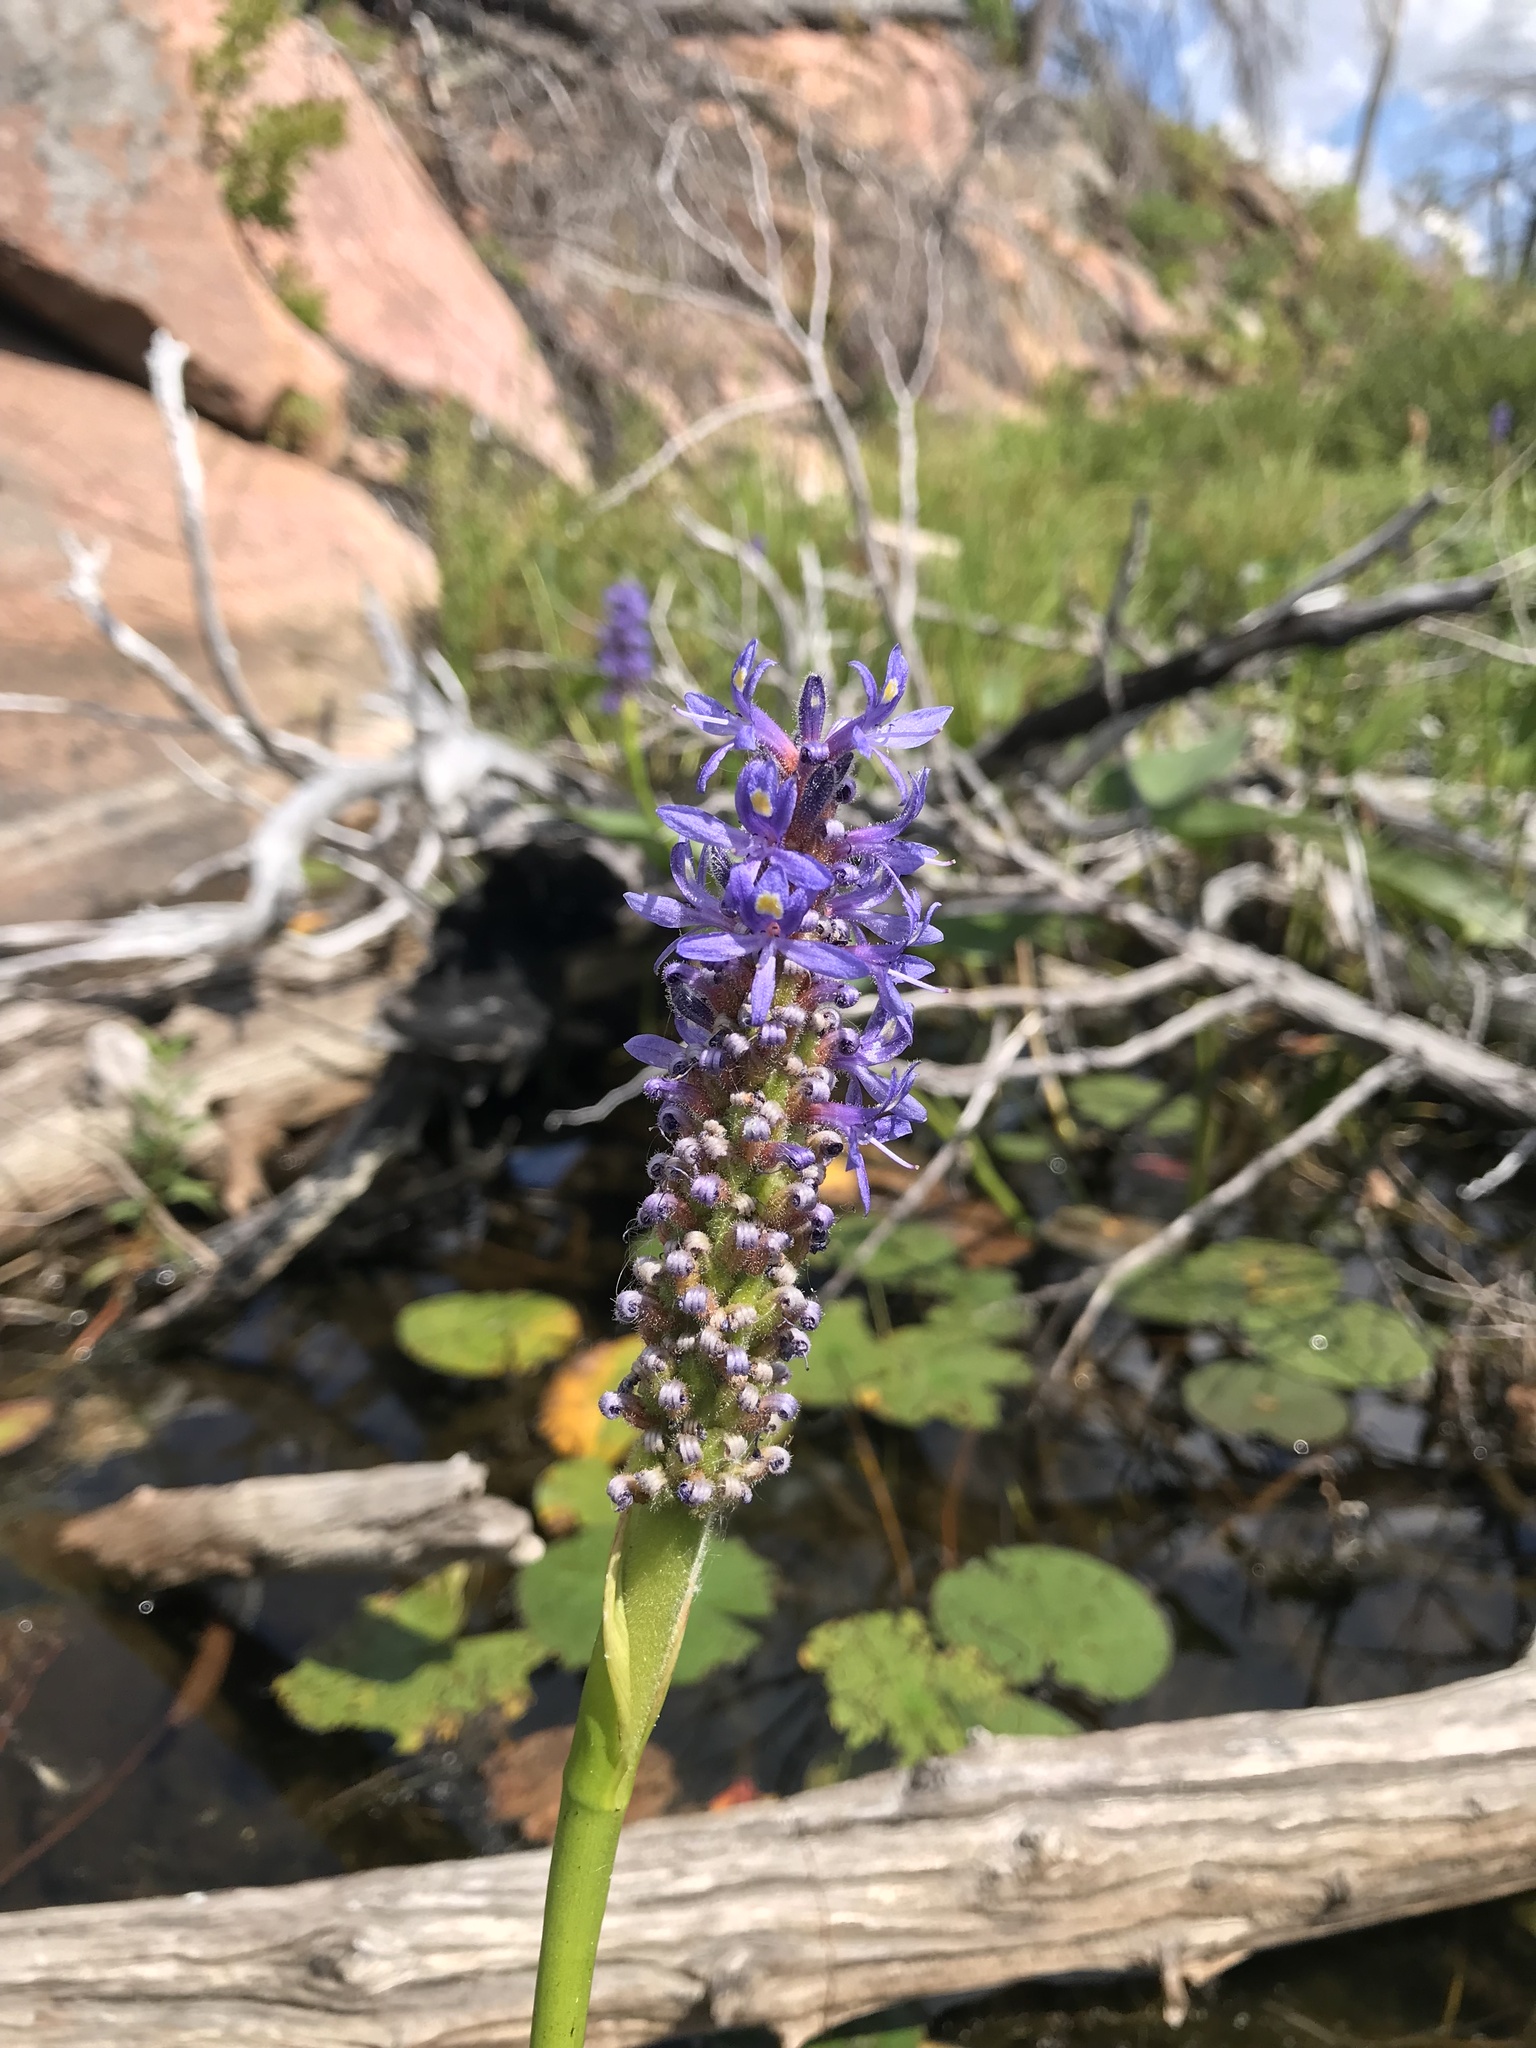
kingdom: Plantae
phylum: Tracheophyta
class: Liliopsida
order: Commelinales
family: Pontederiaceae
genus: Pontederia
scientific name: Pontederia cordata
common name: Pickerelweed
